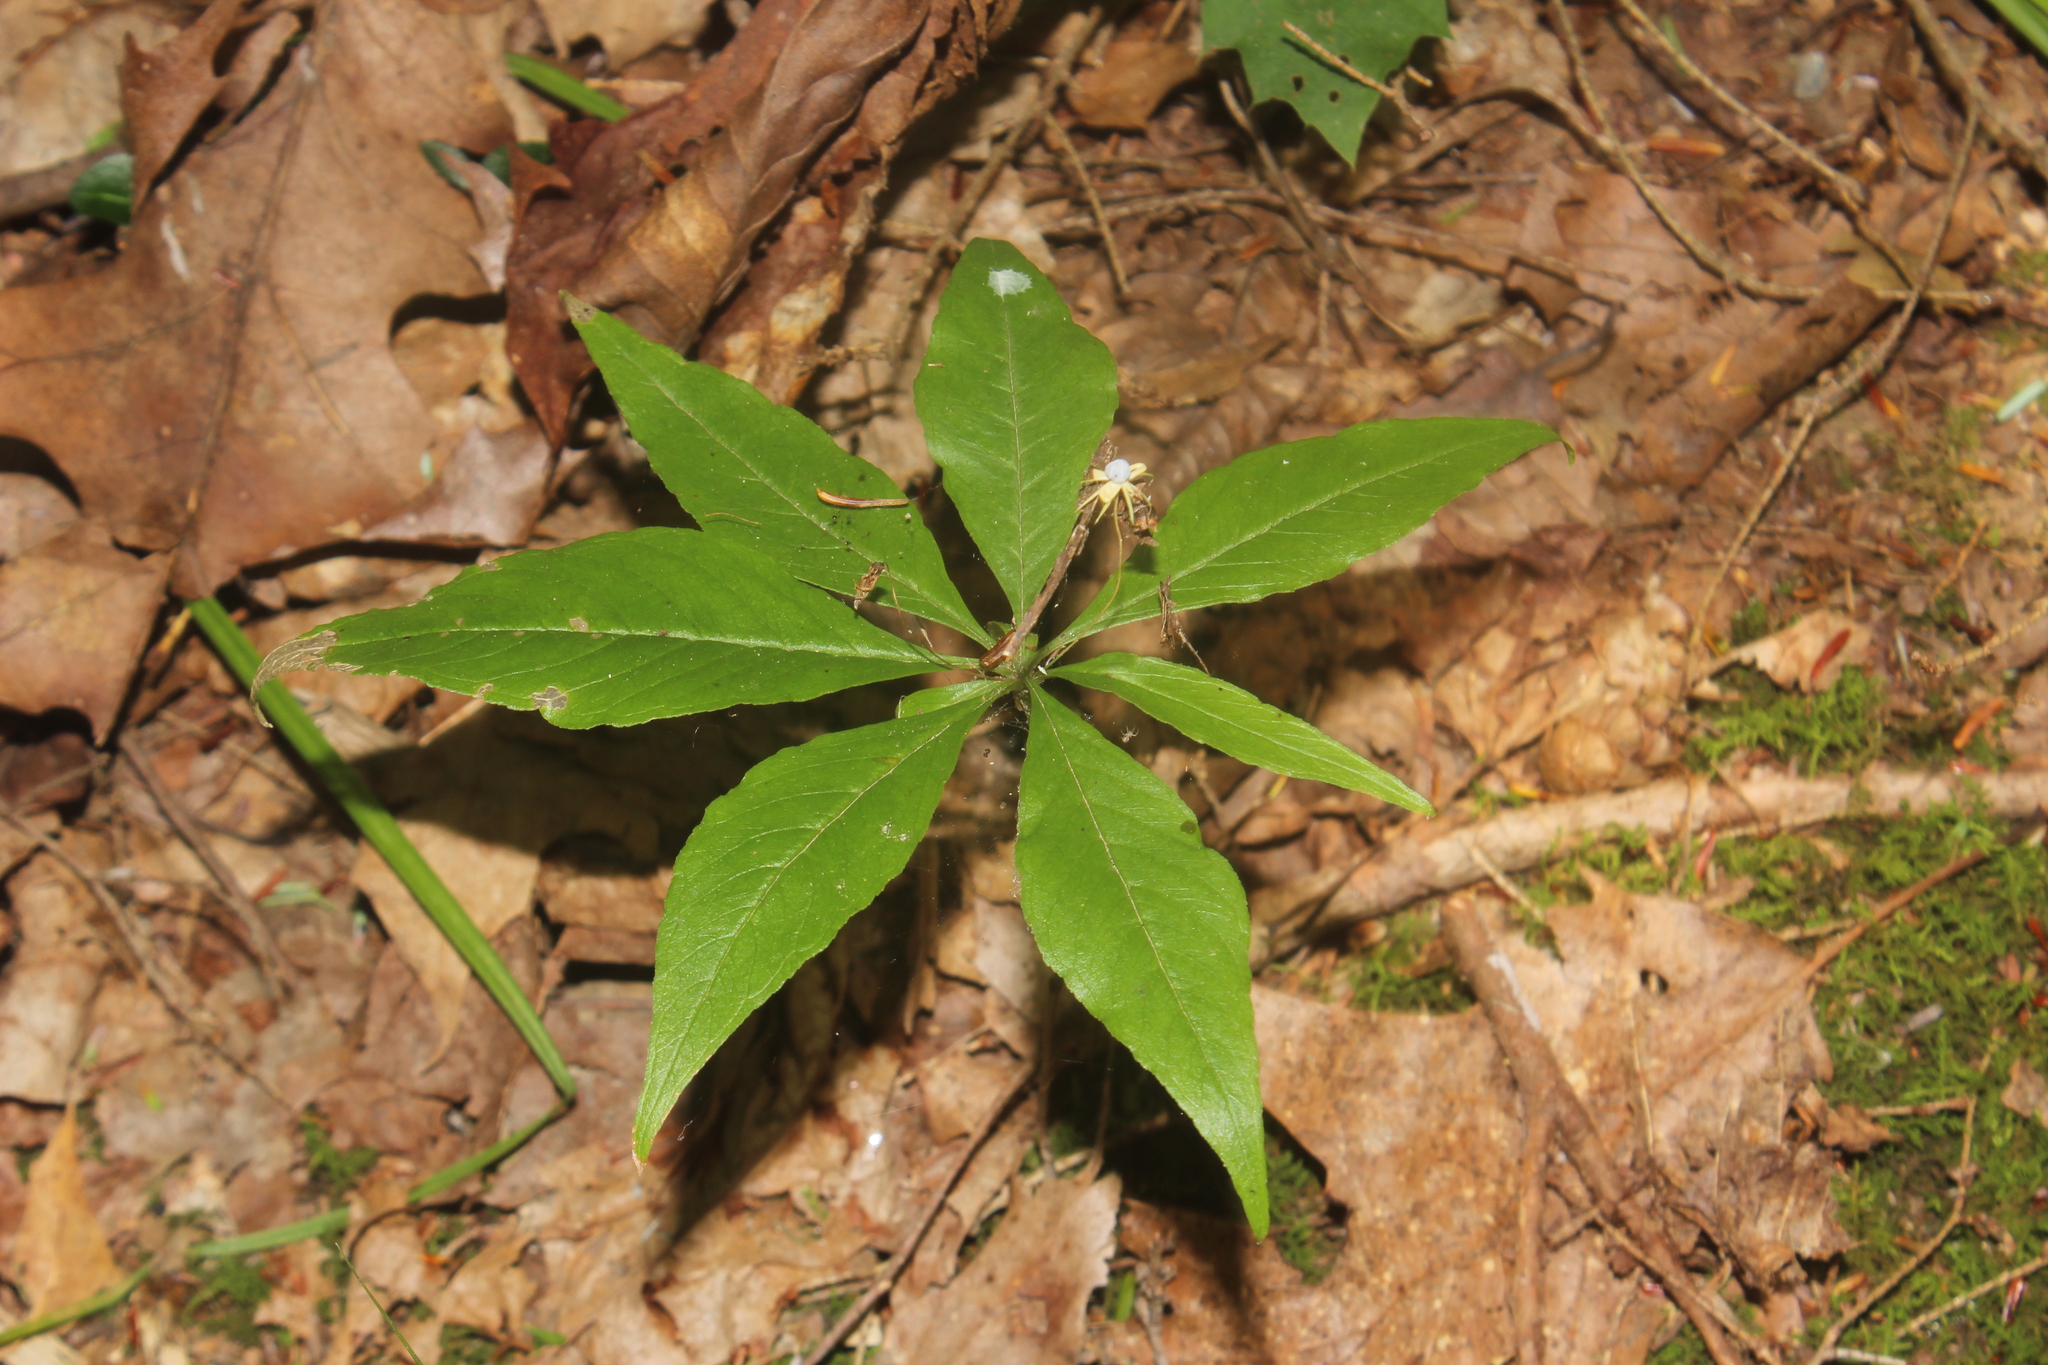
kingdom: Plantae
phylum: Tracheophyta
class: Magnoliopsida
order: Ericales
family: Primulaceae
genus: Lysimachia
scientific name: Lysimachia borealis
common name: American starflower
